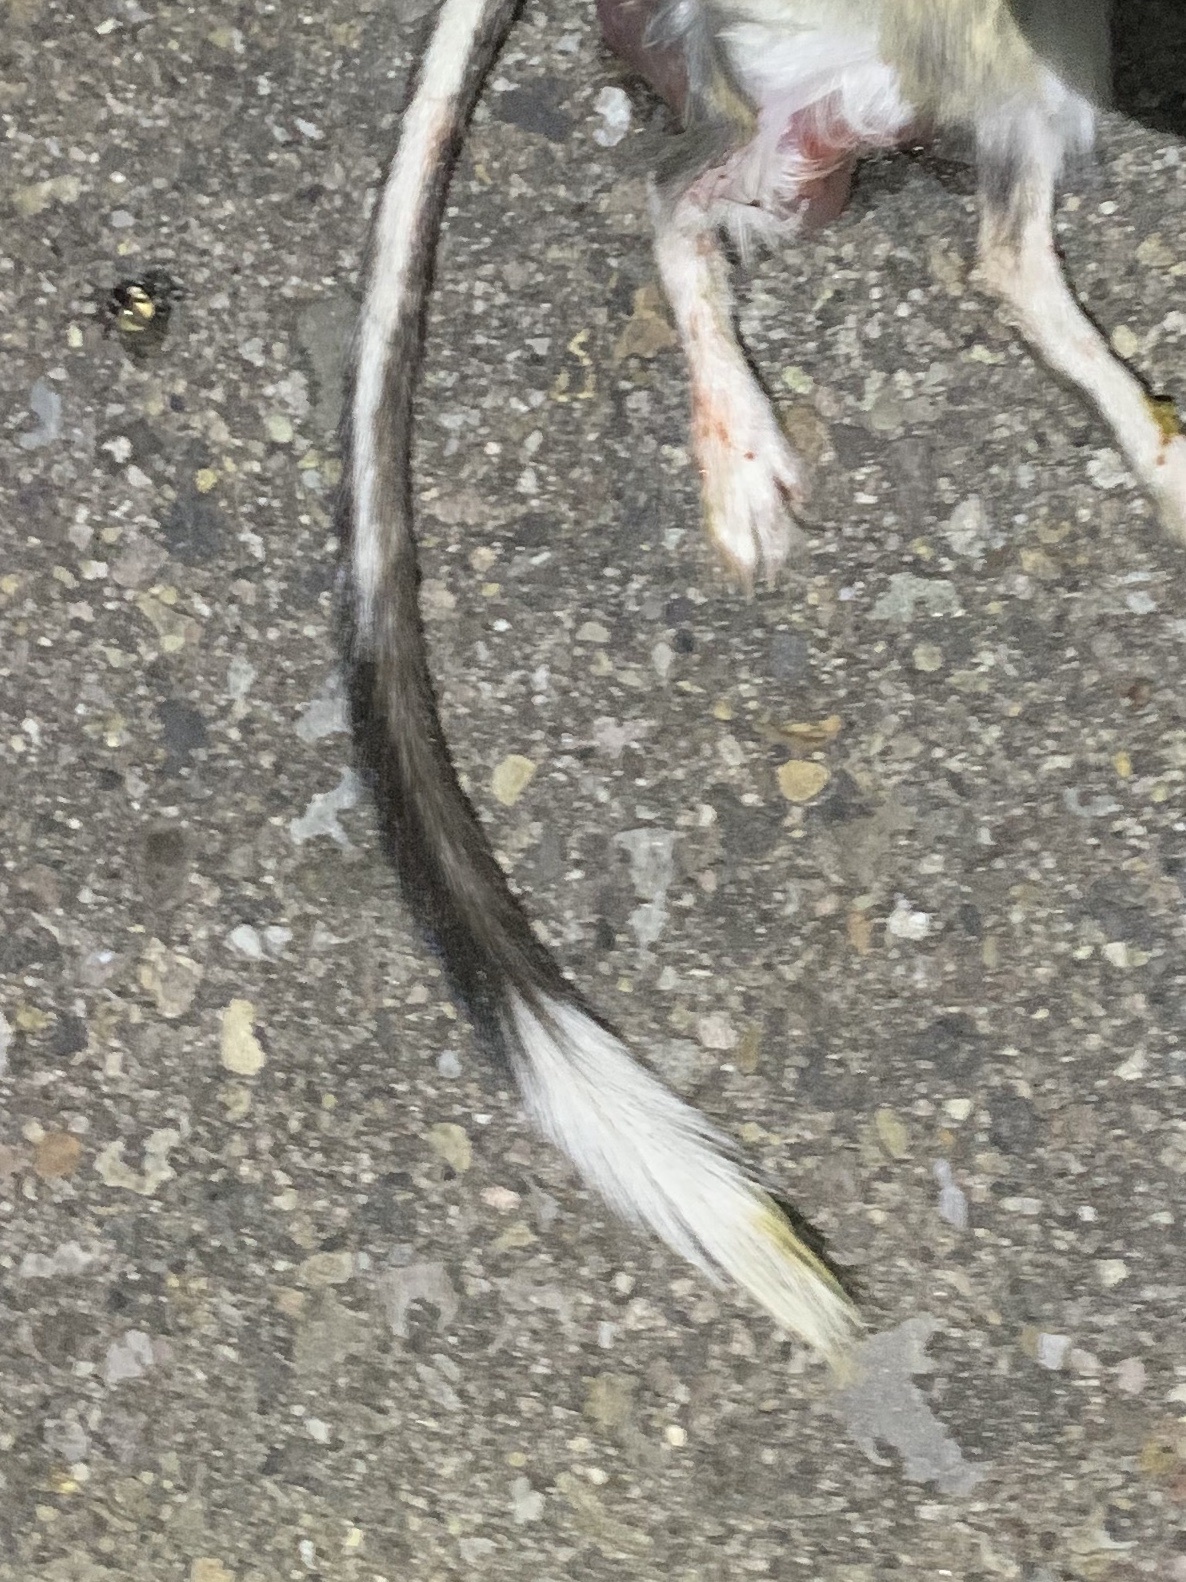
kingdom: Animalia
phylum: Chordata
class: Mammalia
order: Rodentia
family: Heteromyidae
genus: Dipodomys
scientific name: Dipodomys merriami
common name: Merriam's kangaroo rat
